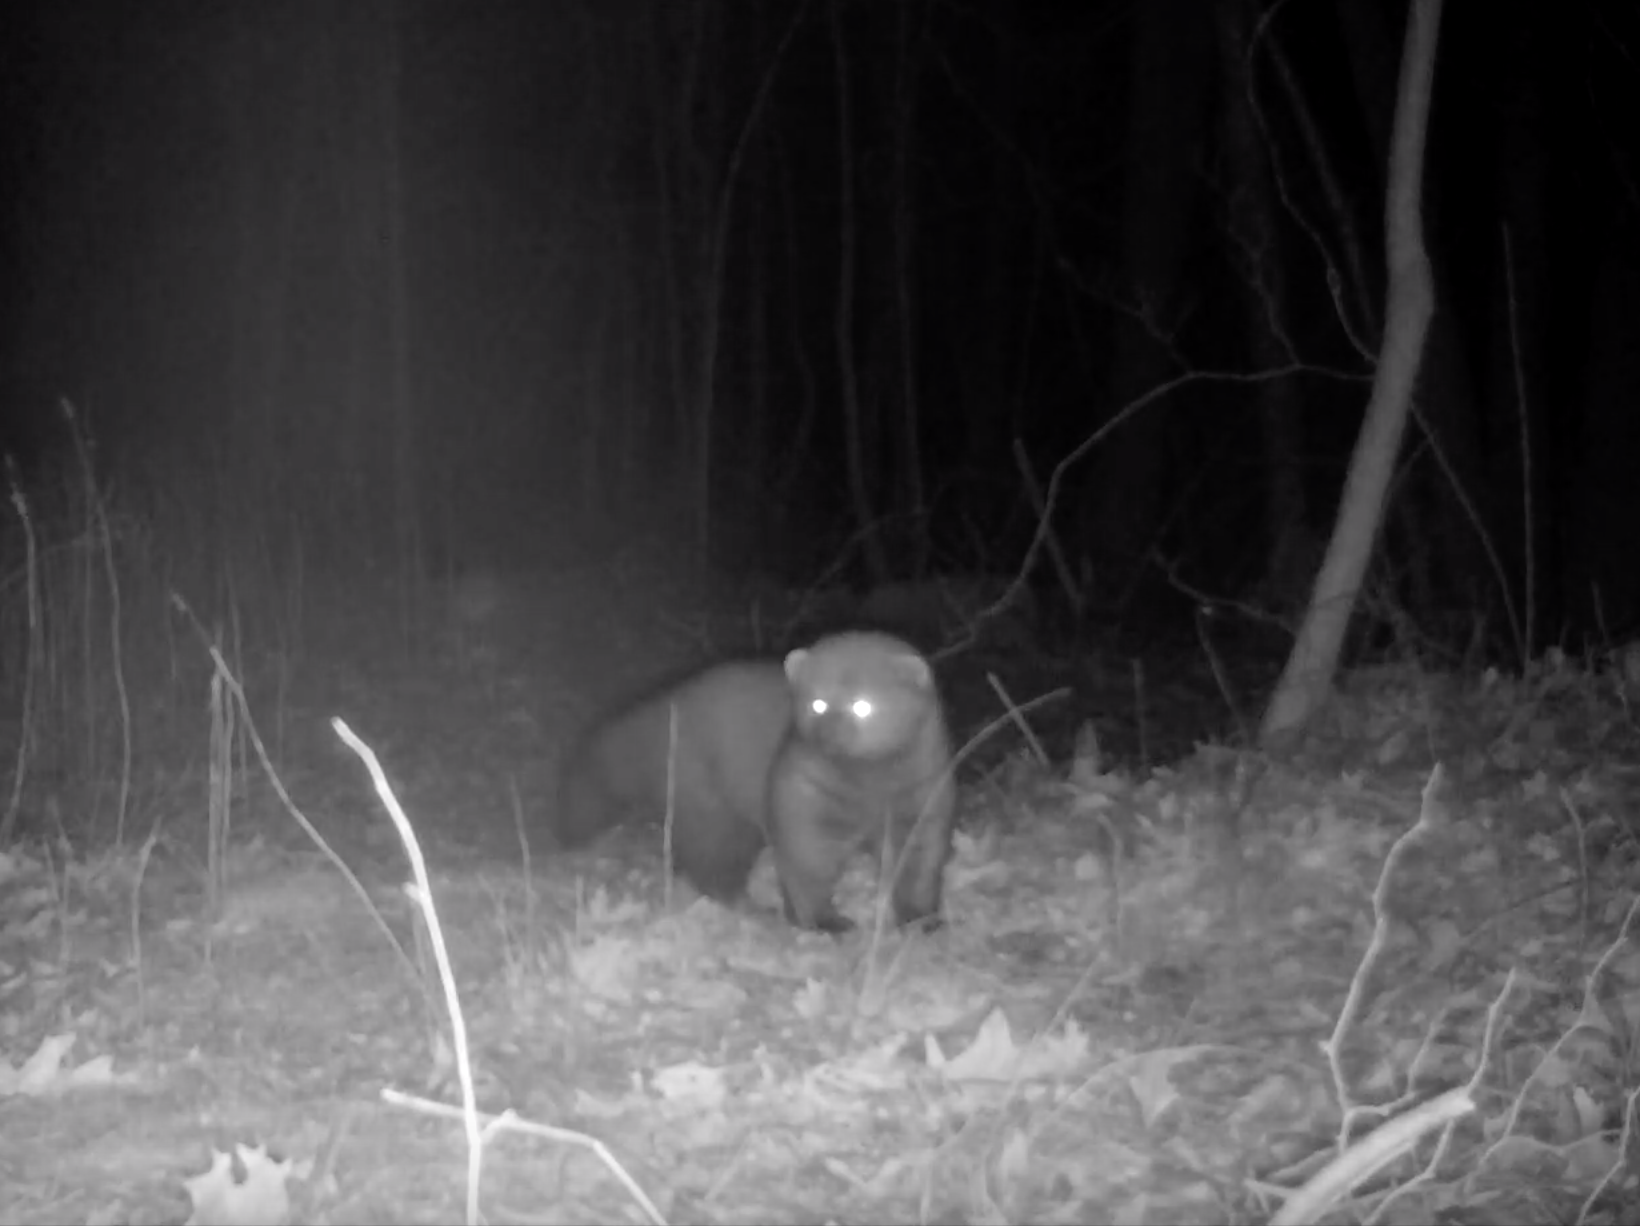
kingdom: Animalia
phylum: Chordata
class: Mammalia
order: Carnivora
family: Mustelidae
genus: Pekania
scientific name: Pekania pennanti
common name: Fisher
